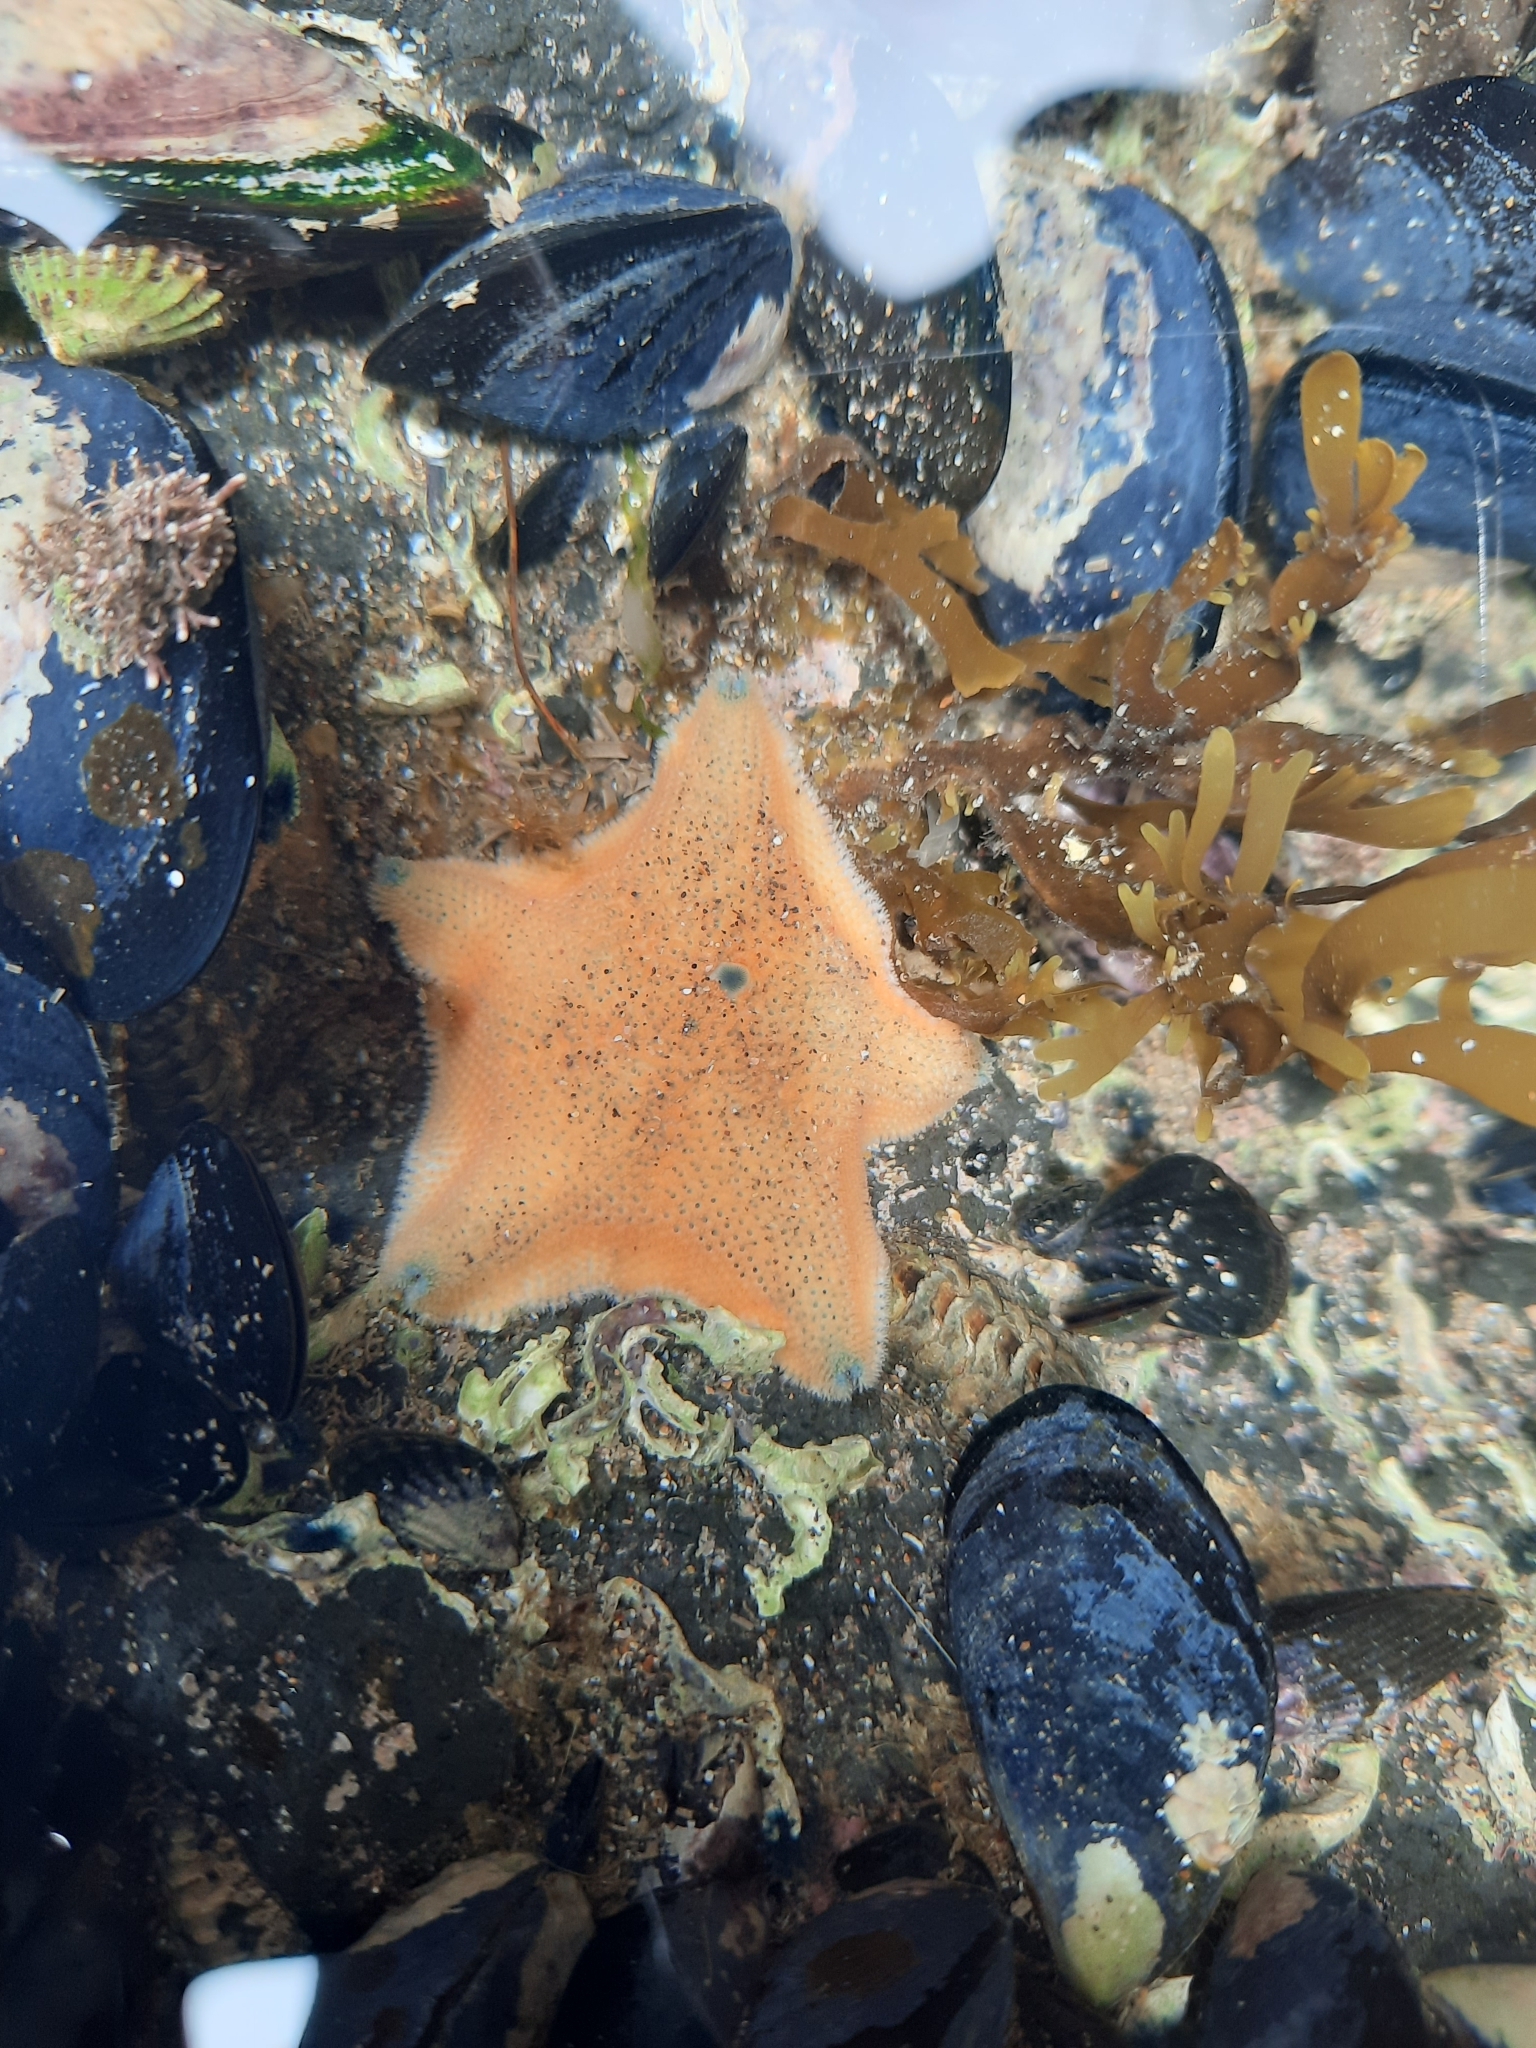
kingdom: Animalia
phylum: Echinodermata
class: Asteroidea
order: Valvatida
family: Asterinidae
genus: Patiriella
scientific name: Patiriella regularis
